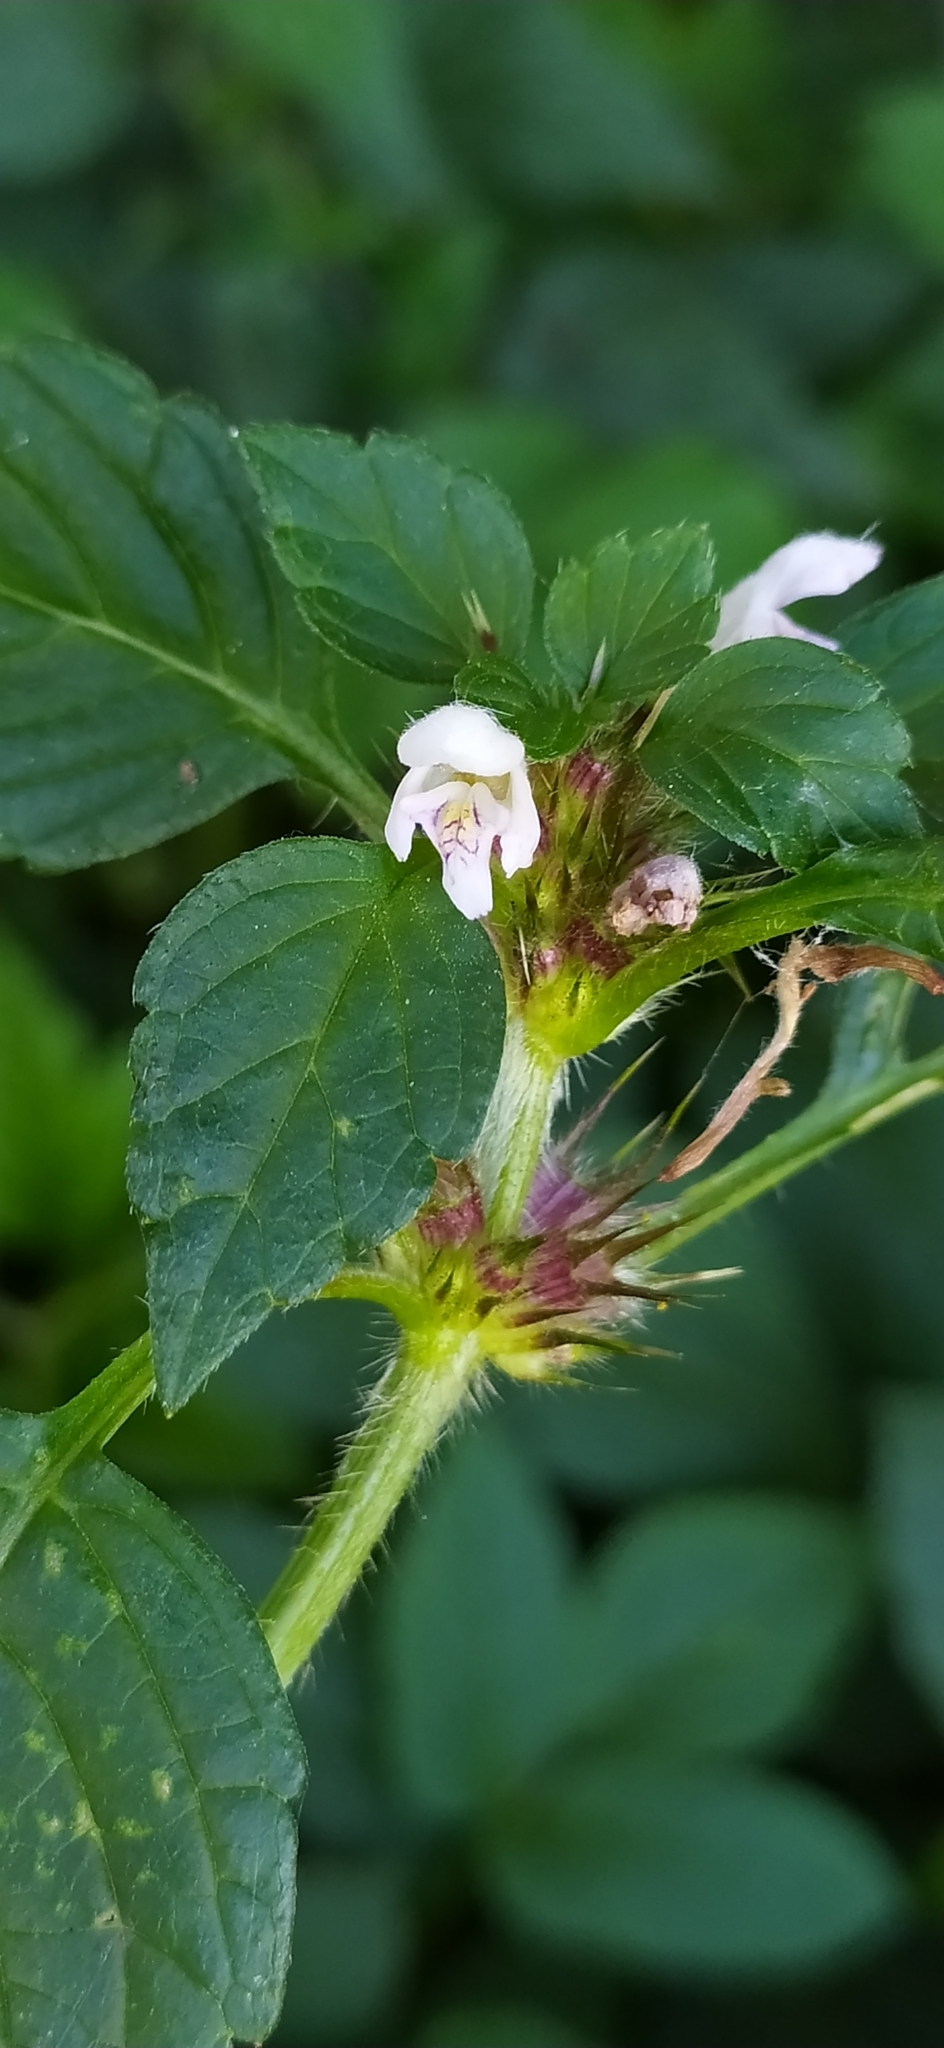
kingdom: Plantae
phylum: Tracheophyta
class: Magnoliopsida
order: Lamiales
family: Lamiaceae
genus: Galeopsis
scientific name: Galeopsis tetrahit
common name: Common hemp-nettle
